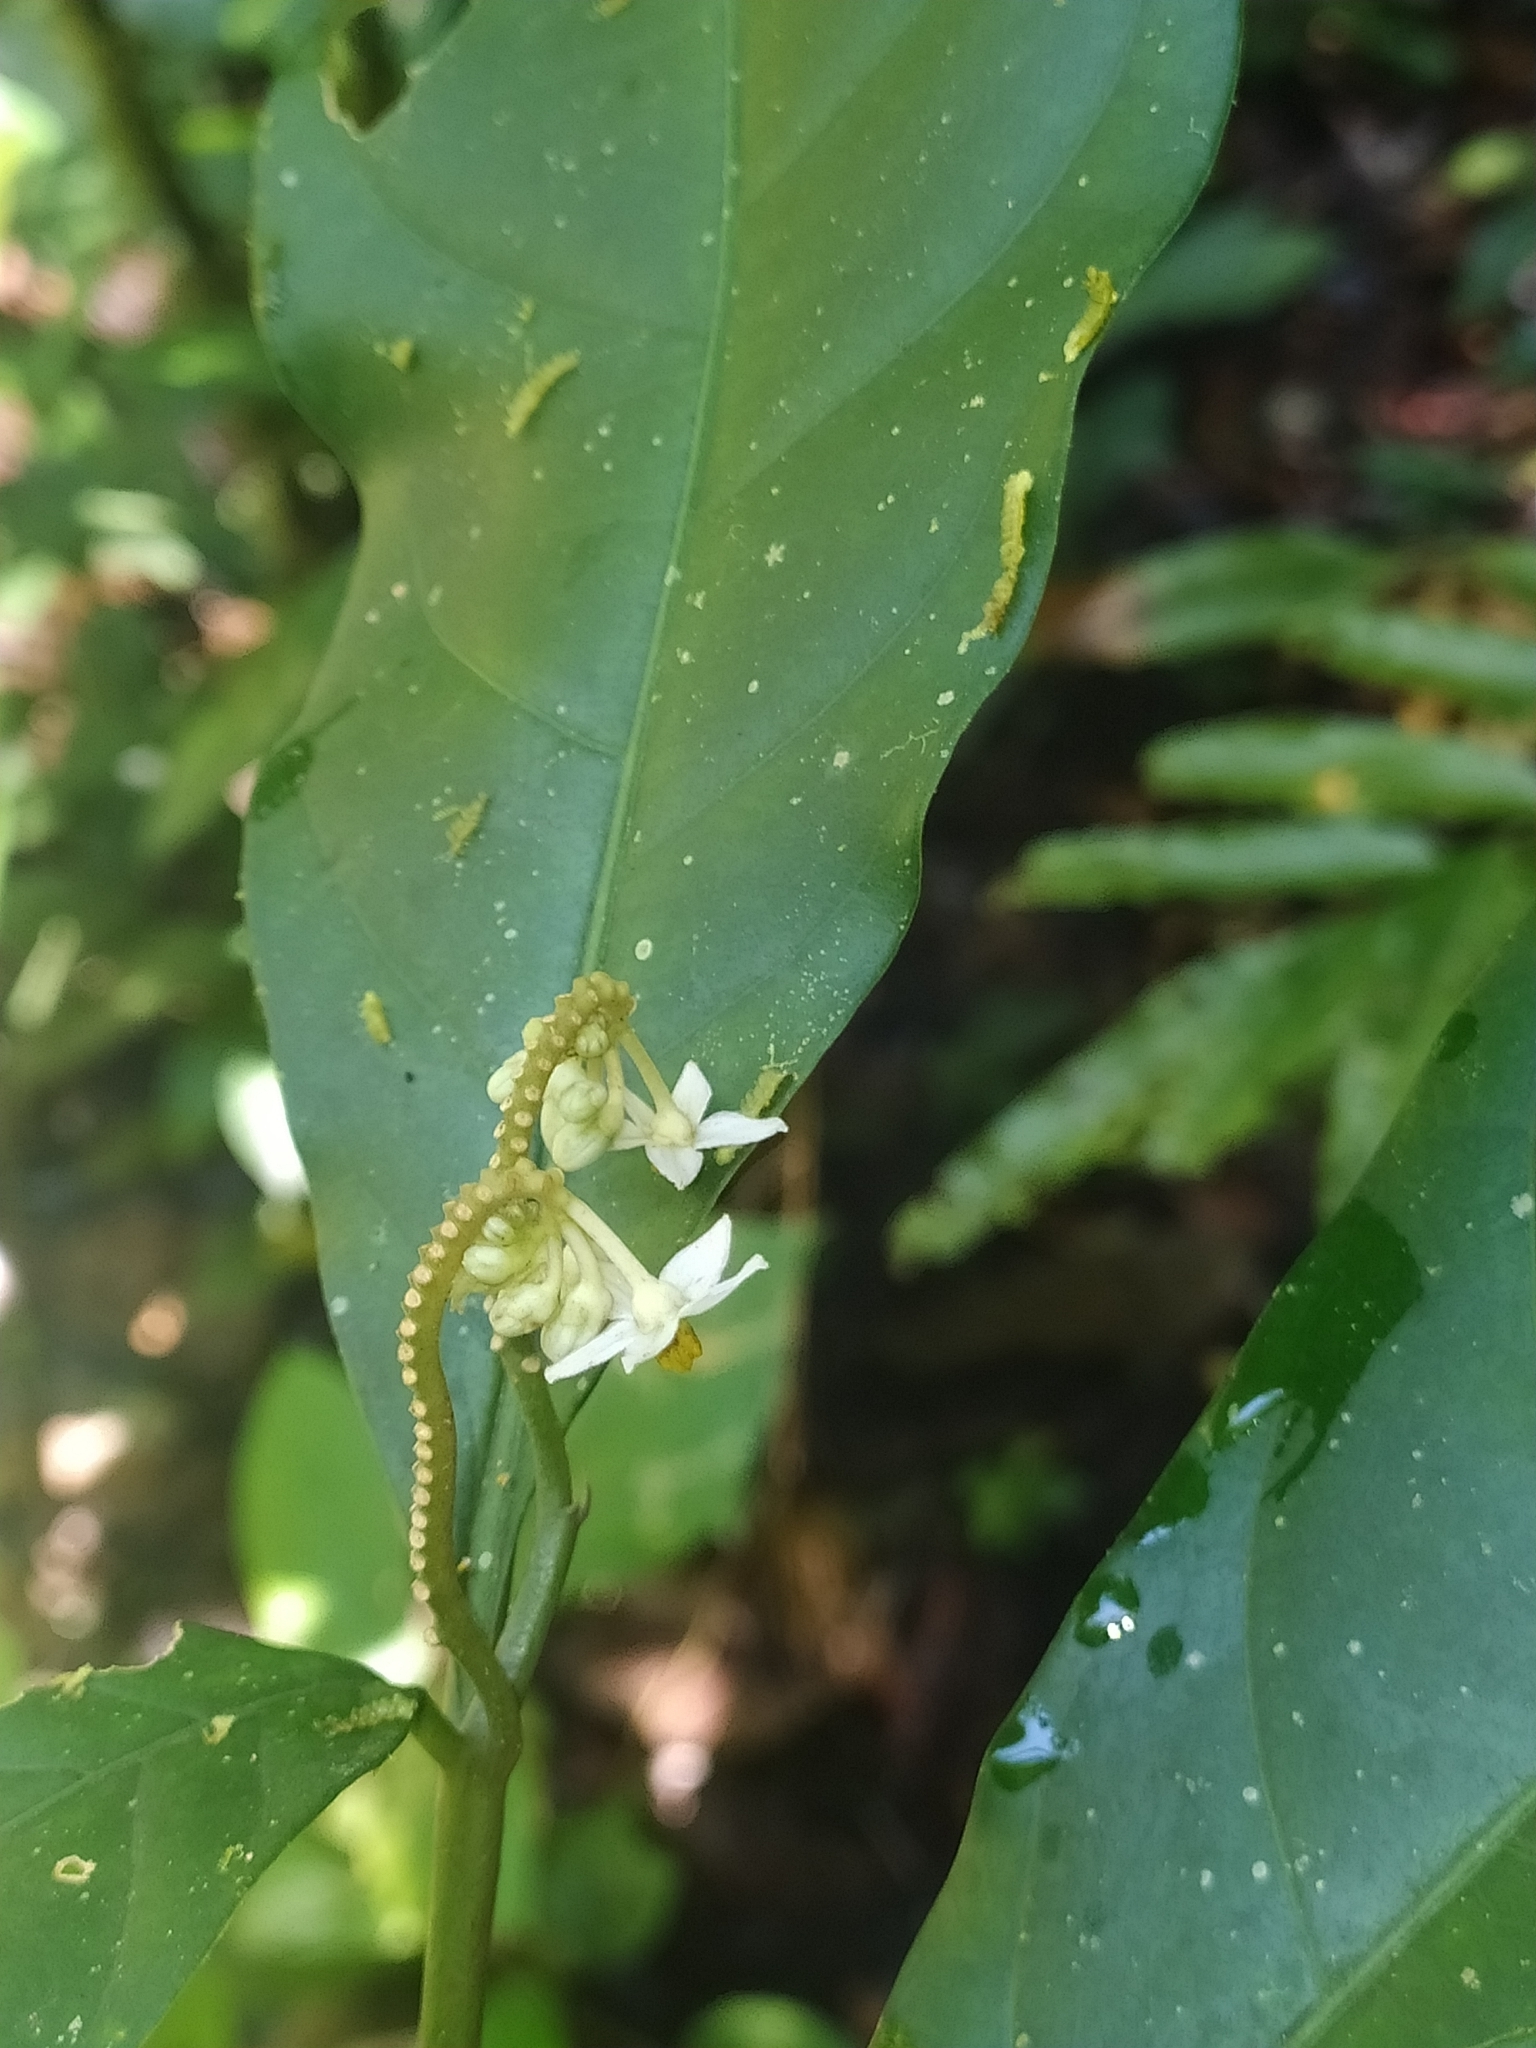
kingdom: Plantae
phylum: Tracheophyta
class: Magnoliopsida
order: Solanales
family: Solanaceae
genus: Solanum
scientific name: Solanum oppositifolium
